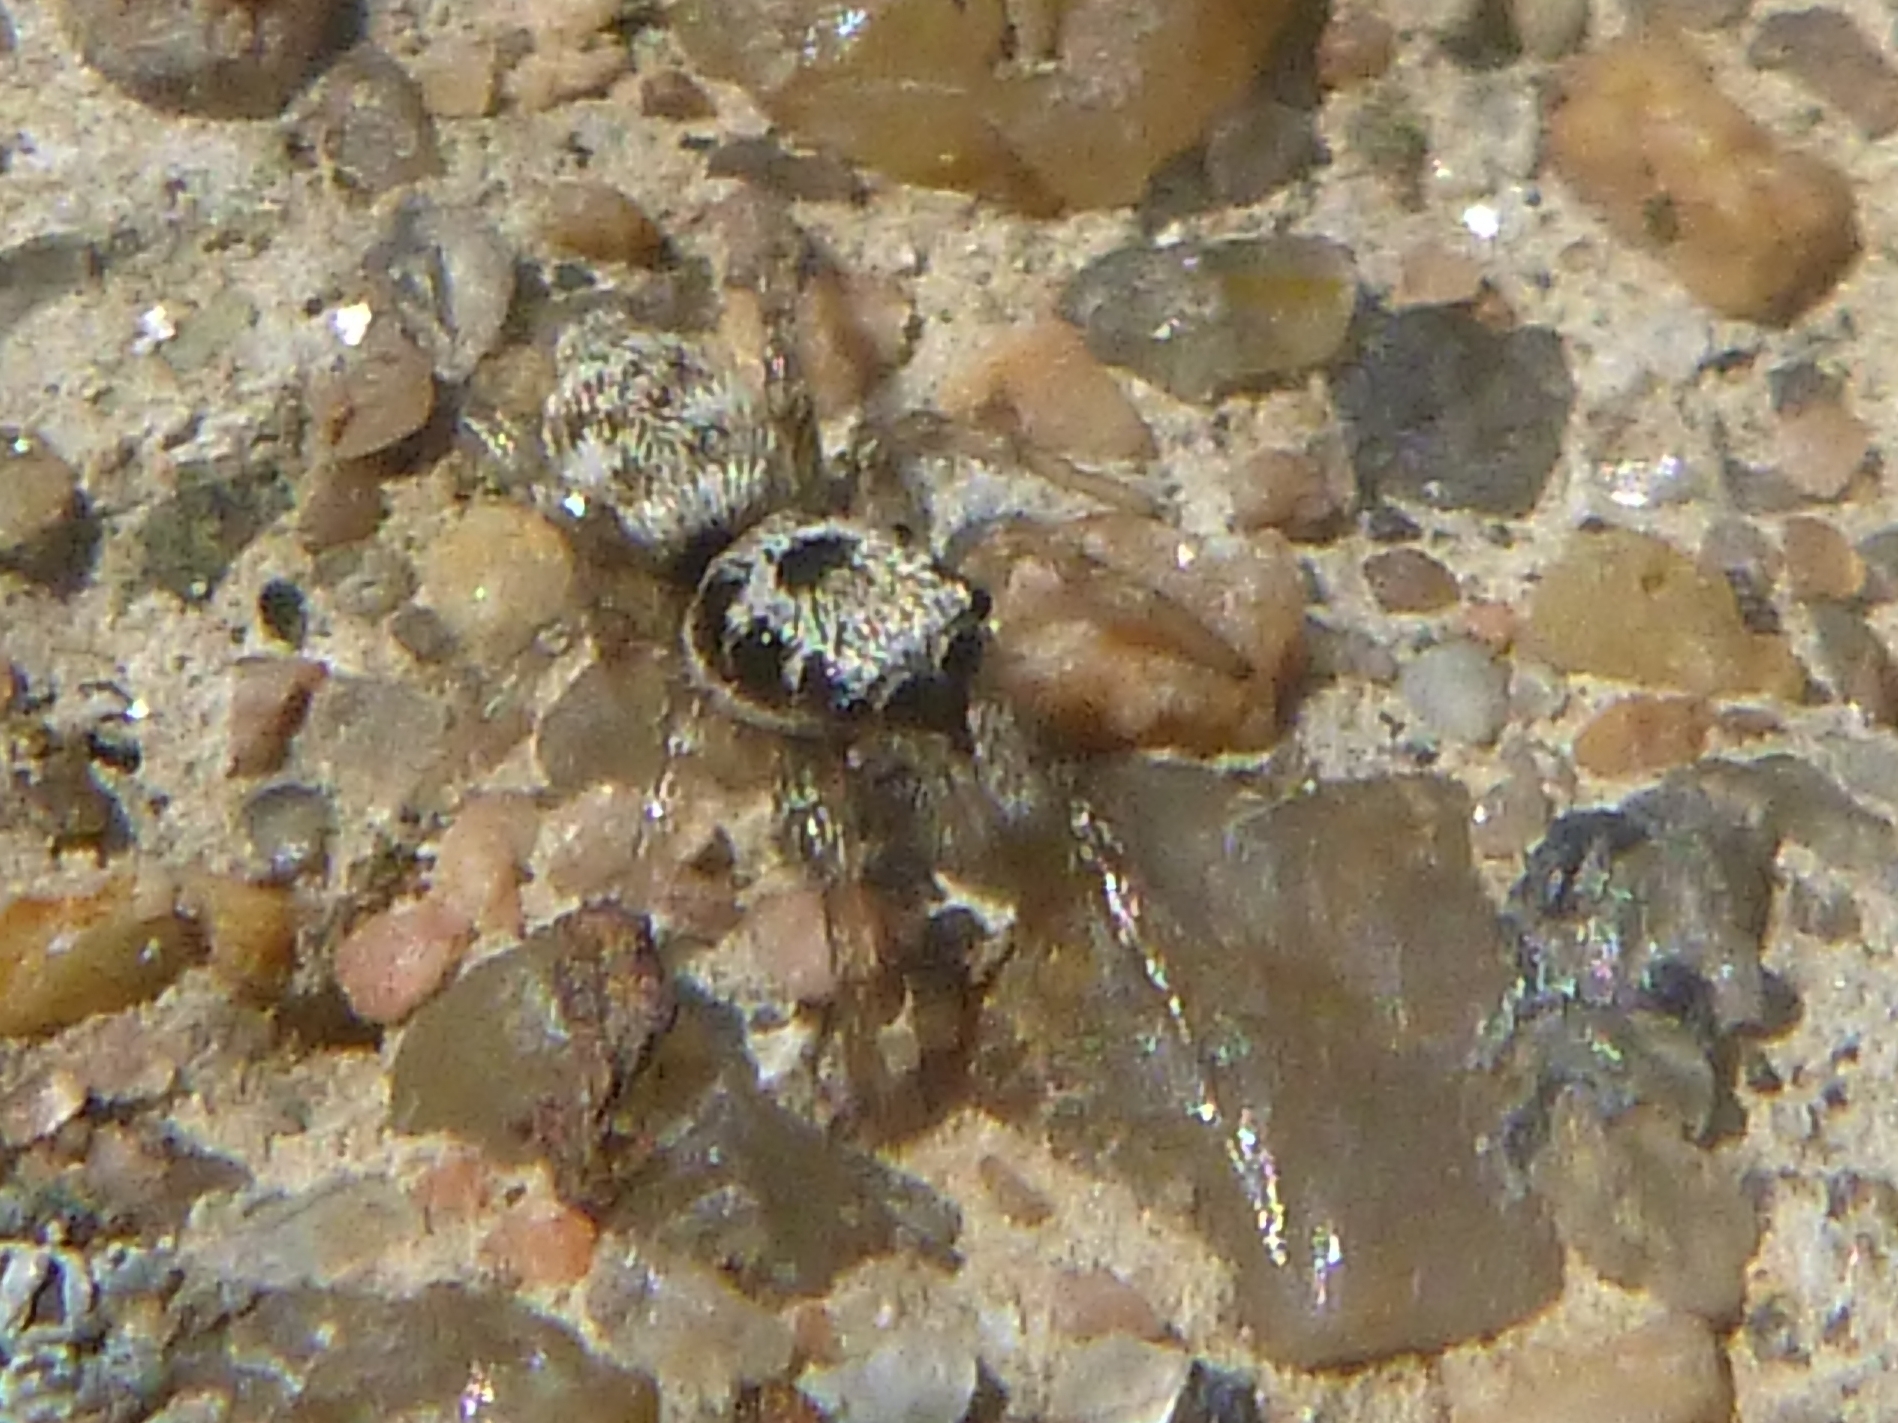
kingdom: Animalia
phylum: Arthropoda
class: Arachnida
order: Araneae
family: Salticidae
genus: Salticus
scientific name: Salticus scenicus
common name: Zebra jumper
